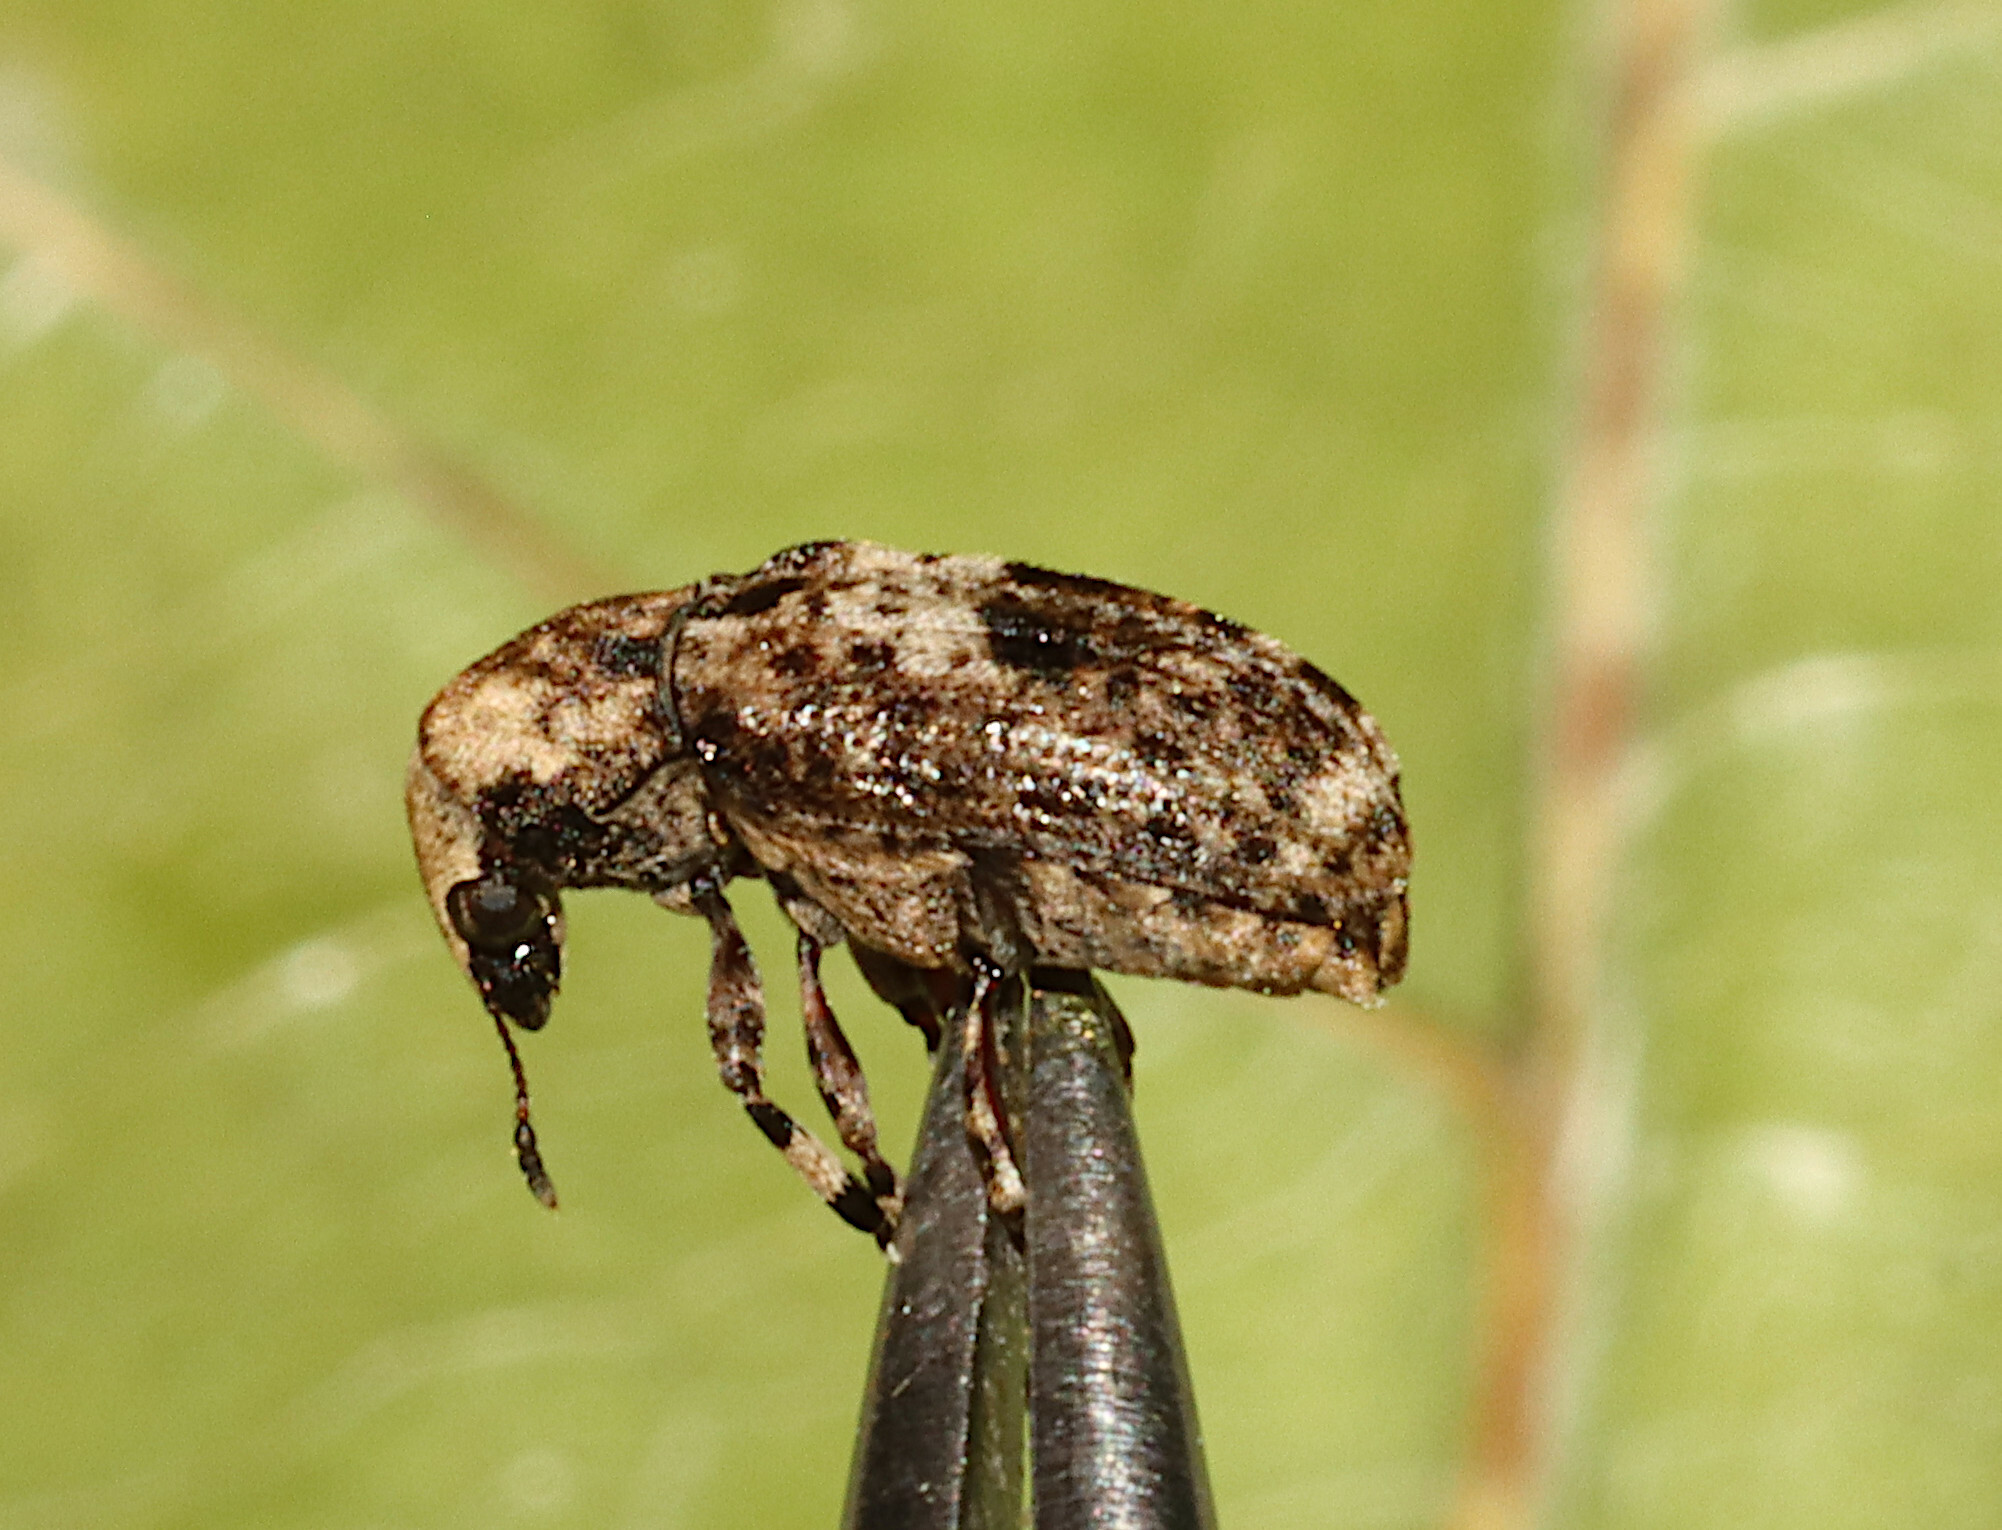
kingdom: Animalia
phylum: Arthropoda
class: Insecta
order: Coleoptera
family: Anthribidae
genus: Euparius
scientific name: Euparius marmoreus
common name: Marbled fungus weevil
